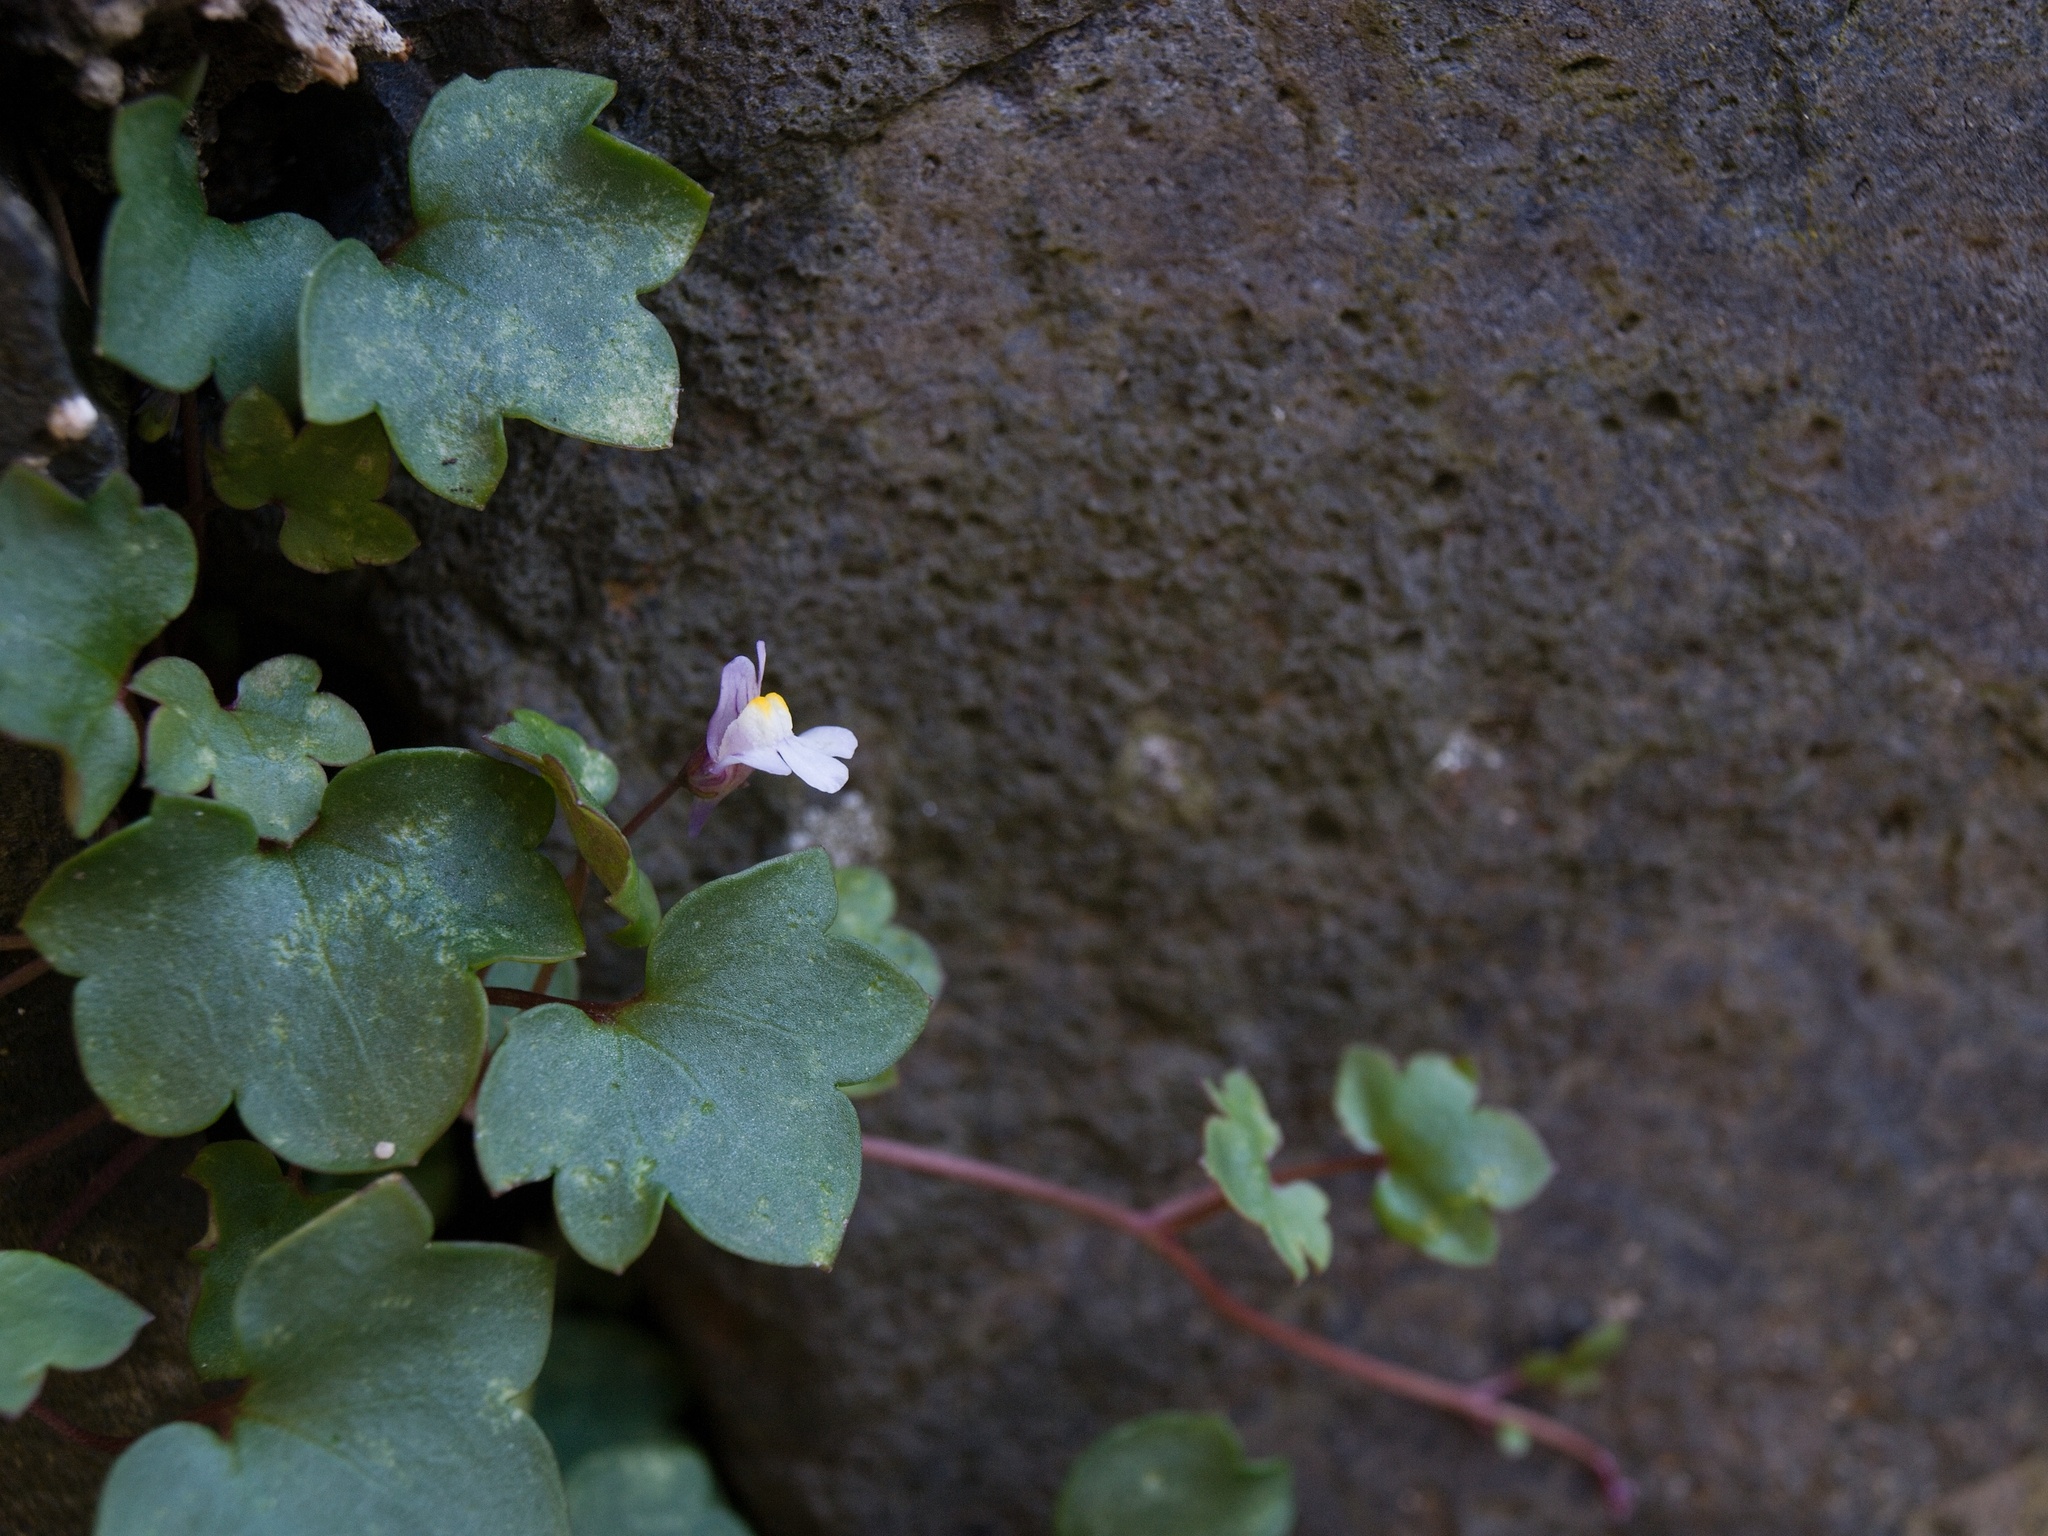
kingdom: Plantae
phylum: Tracheophyta
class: Magnoliopsida
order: Lamiales
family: Plantaginaceae
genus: Cymbalaria
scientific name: Cymbalaria muralis
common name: Ivy-leaved toadflax
